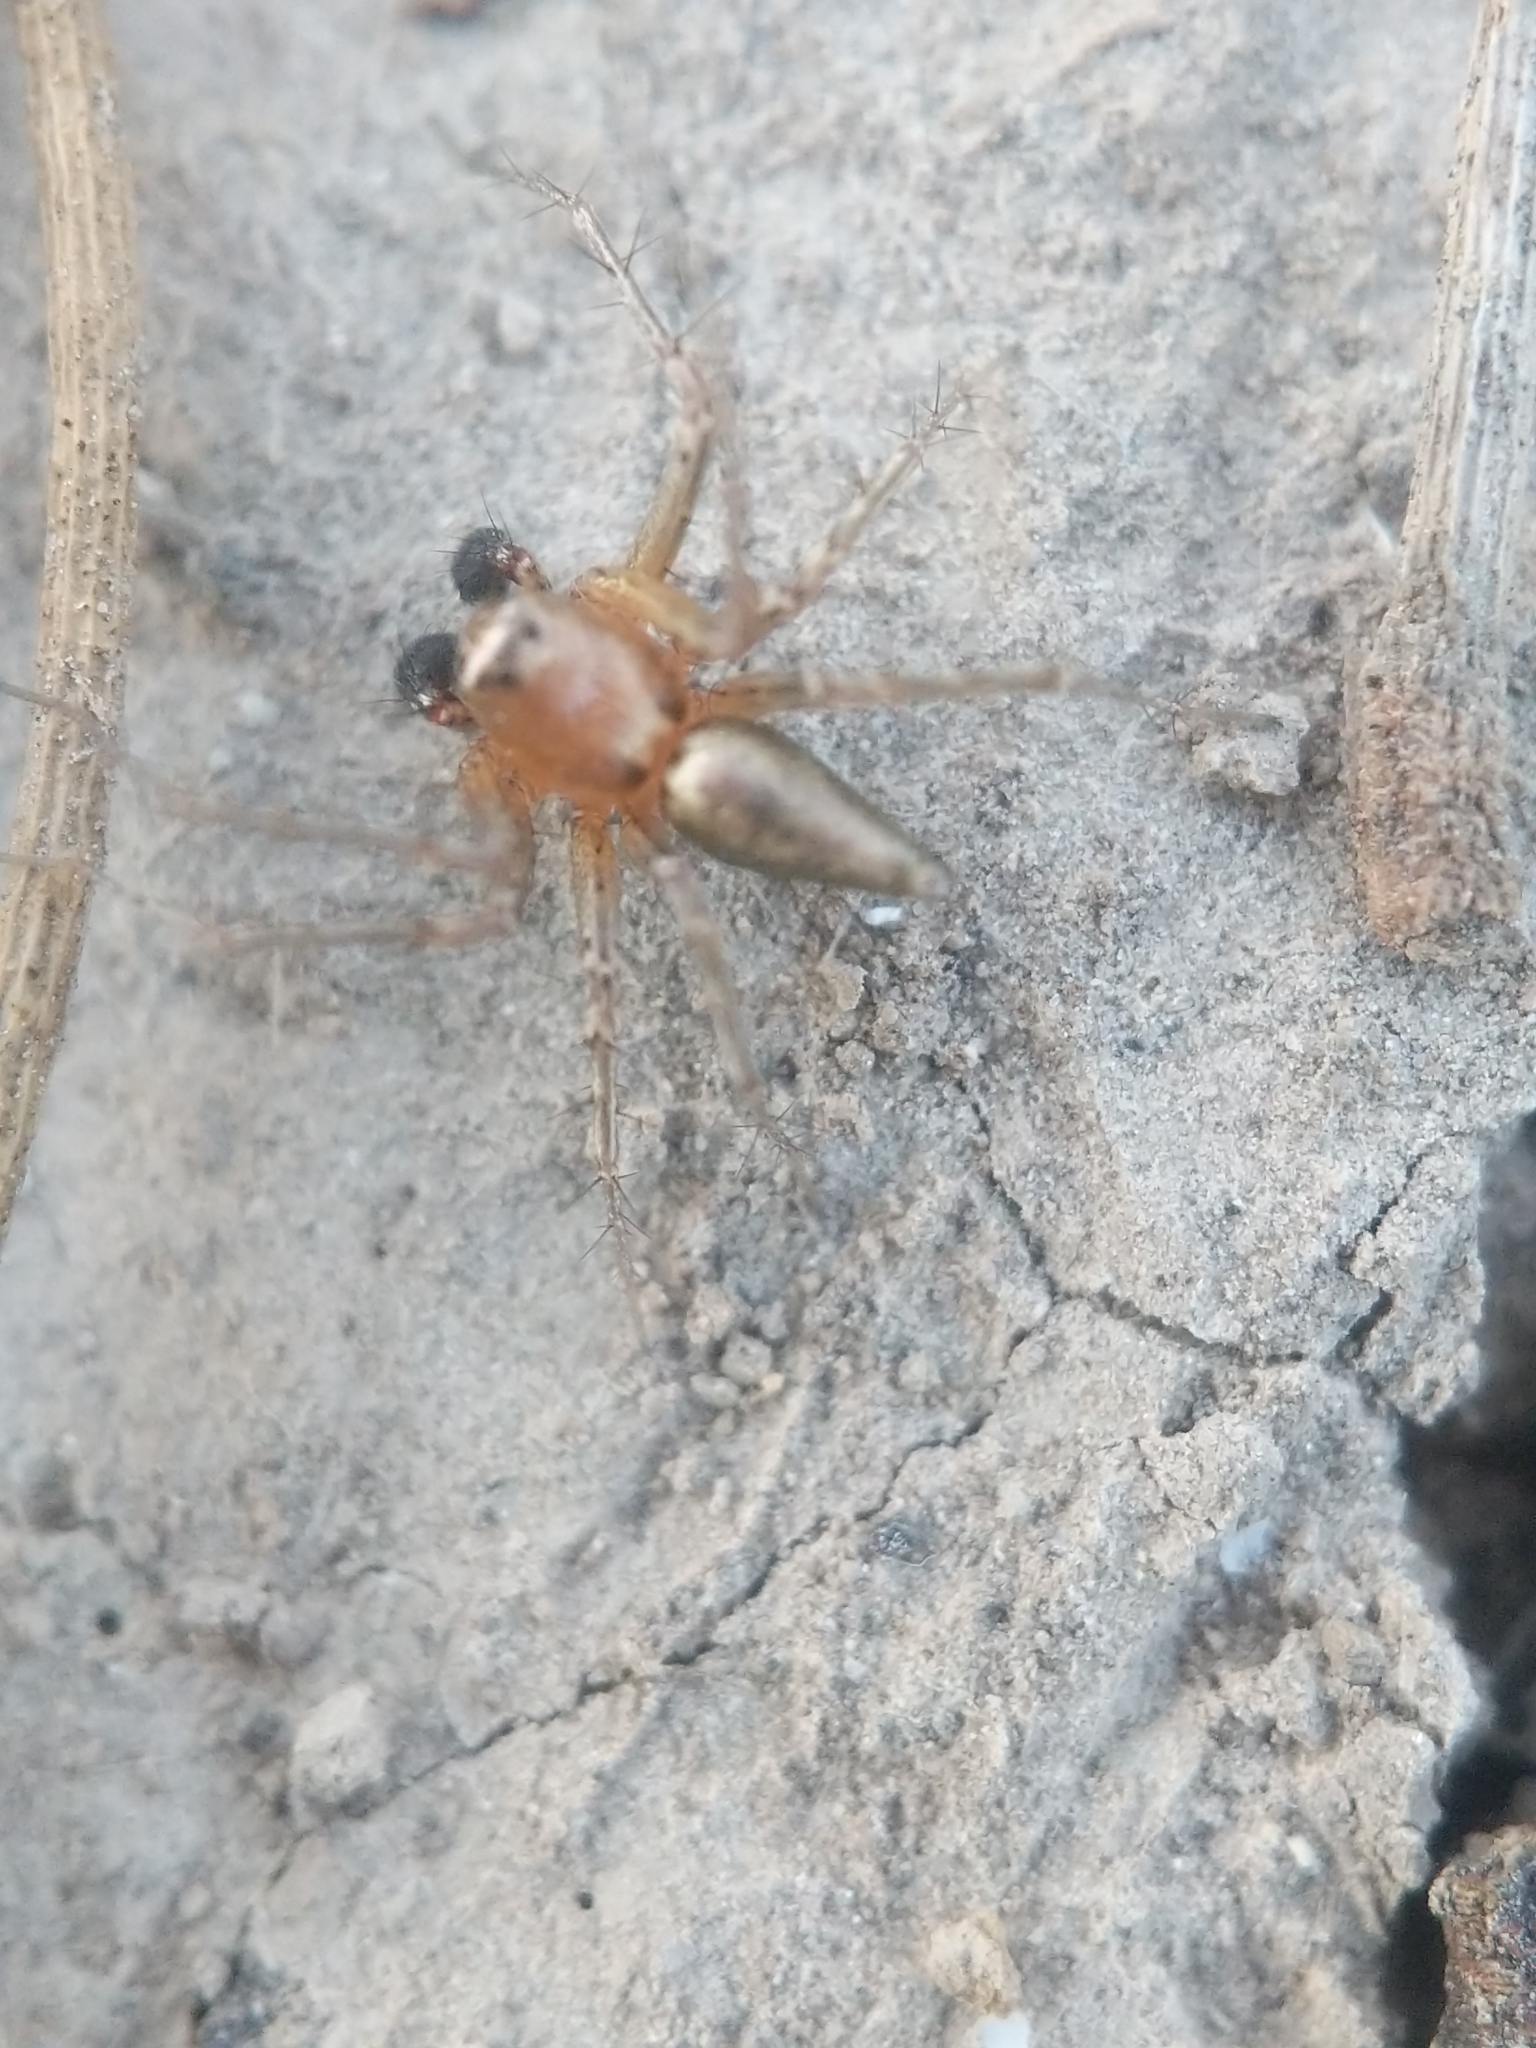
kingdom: Animalia
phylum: Arthropoda
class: Arachnida
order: Araneae
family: Oxyopidae
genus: Oxyopes
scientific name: Oxyopes salticus
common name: Lynx spiders
